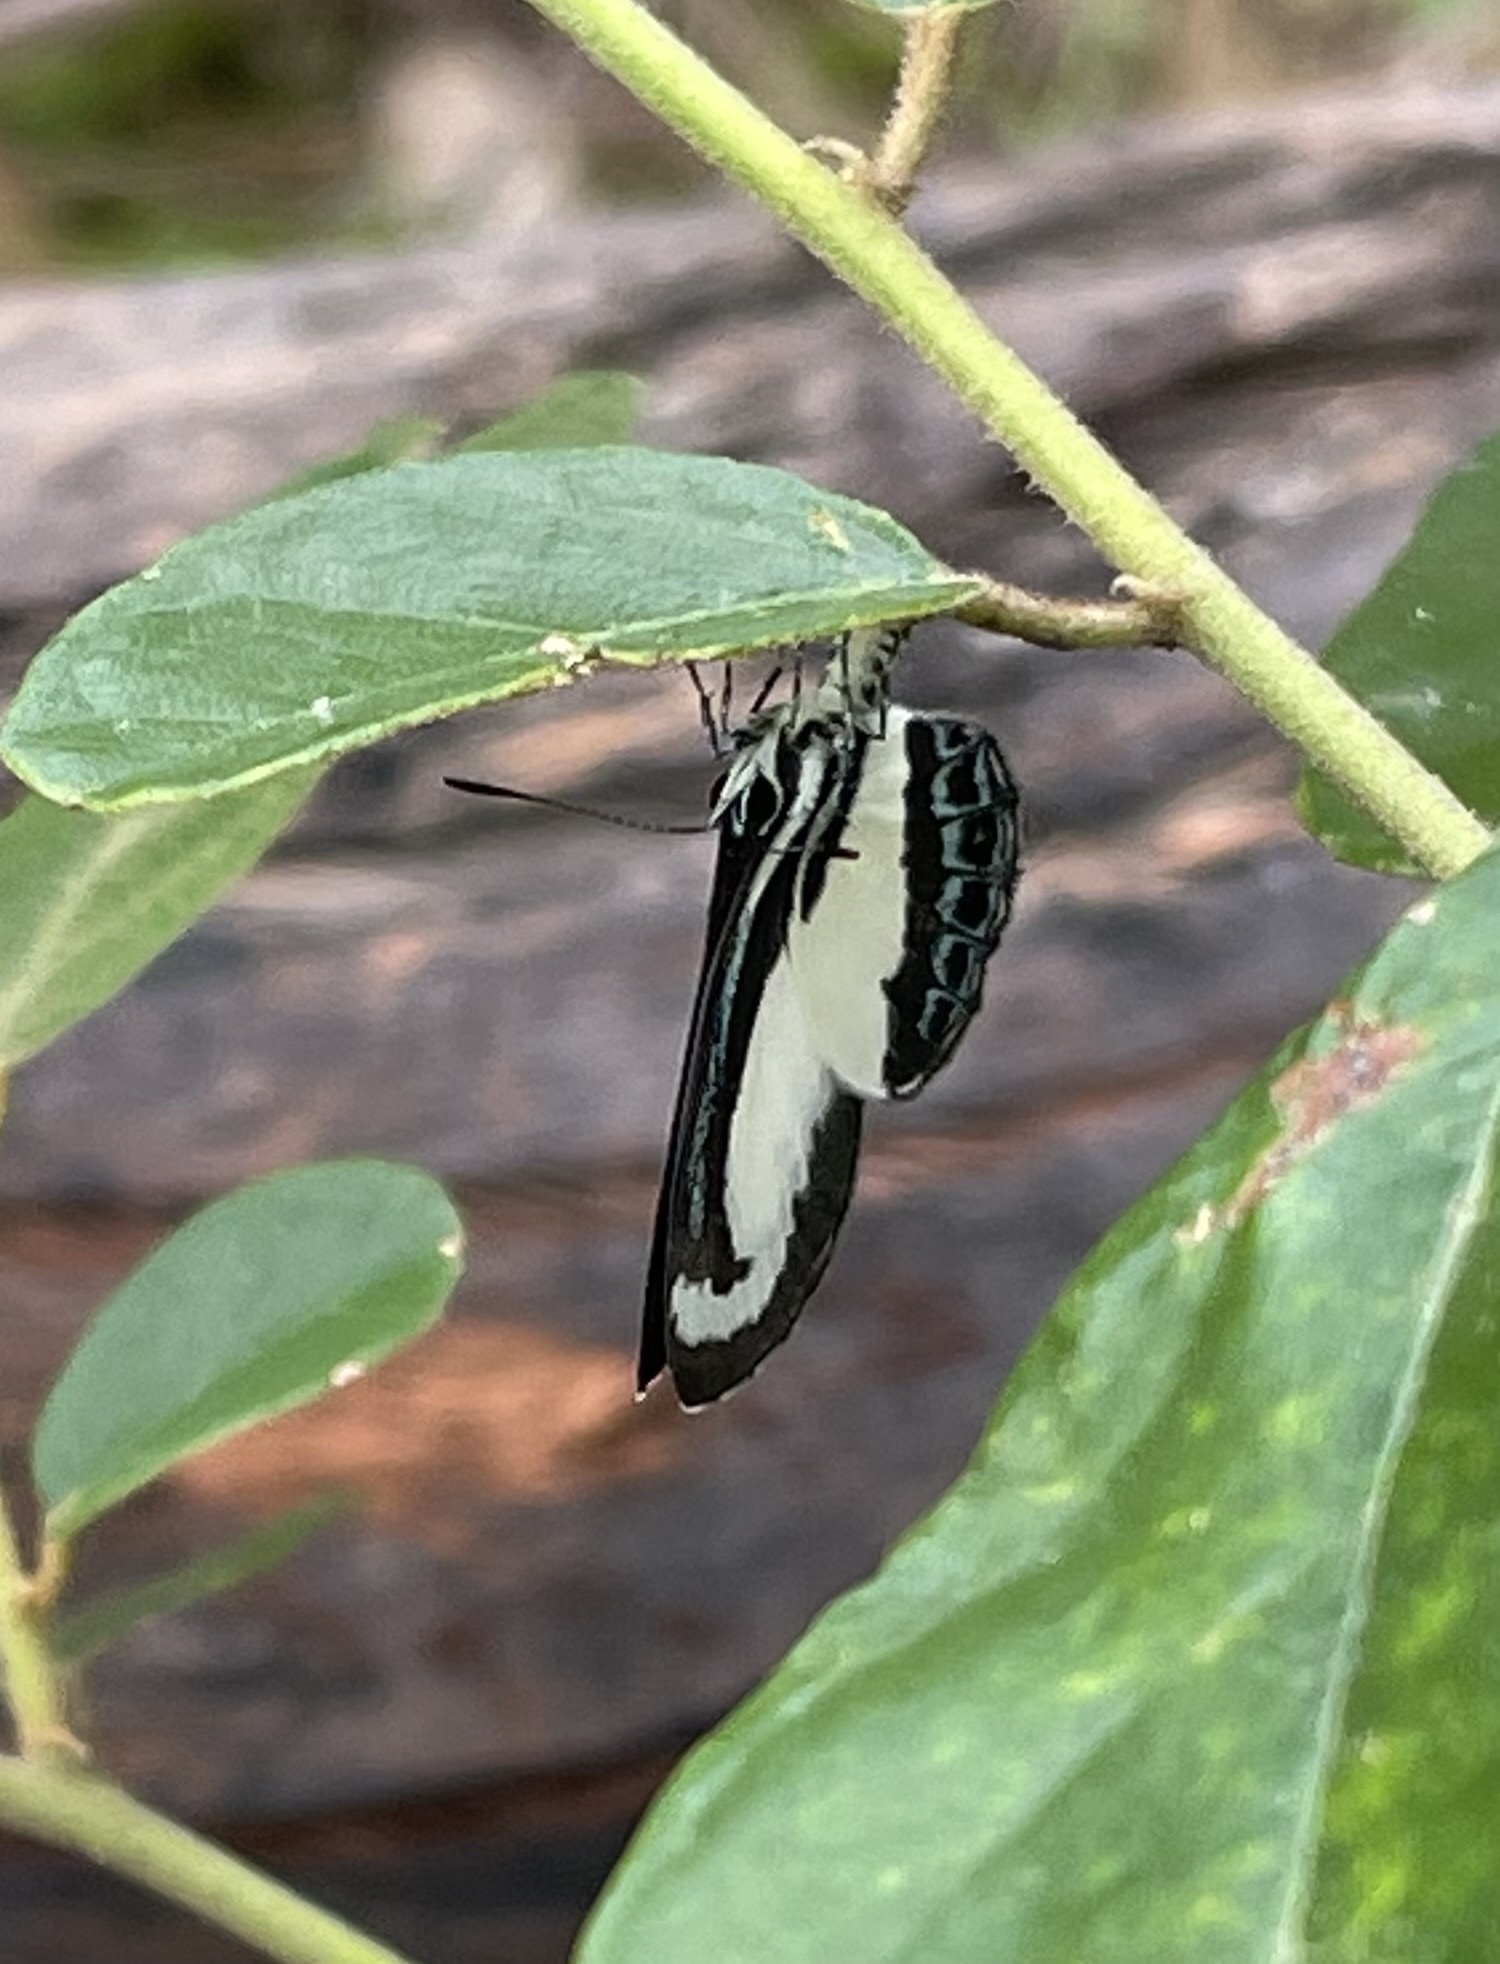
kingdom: Animalia
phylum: Arthropoda
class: Insecta
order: Lepidoptera
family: Lycaenidae
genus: Psychonotis
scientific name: Psychonotis caelius
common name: Small green banded blue
